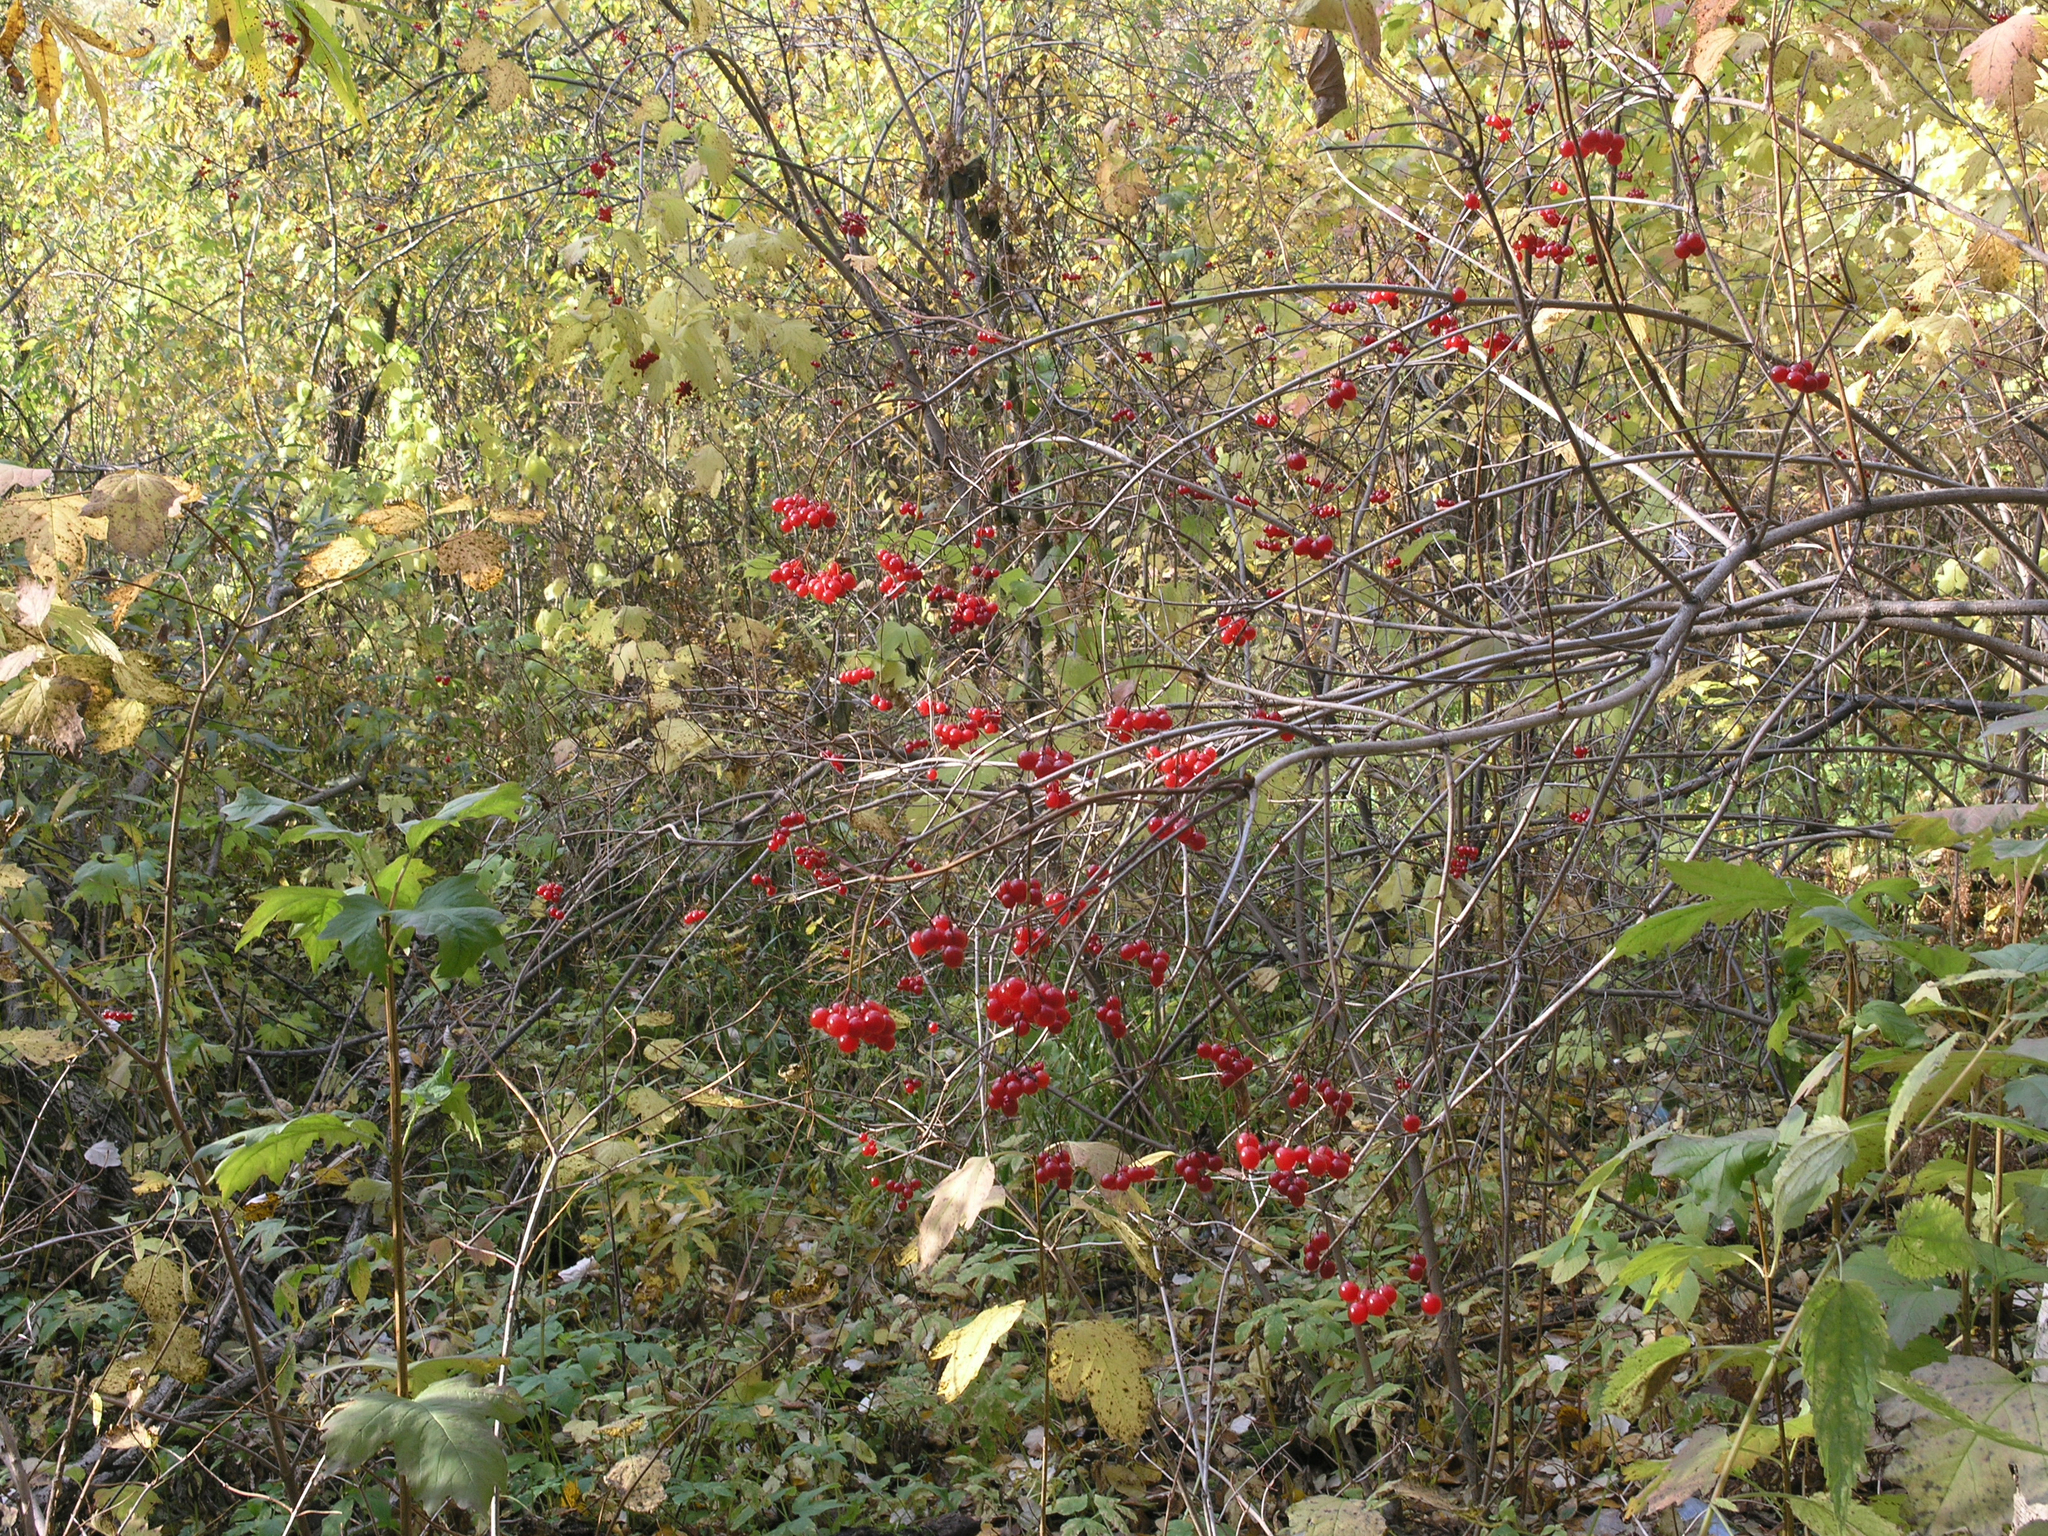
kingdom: Plantae
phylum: Tracheophyta
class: Magnoliopsida
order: Dipsacales
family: Viburnaceae
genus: Viburnum
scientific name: Viburnum opulus
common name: Guelder-rose
